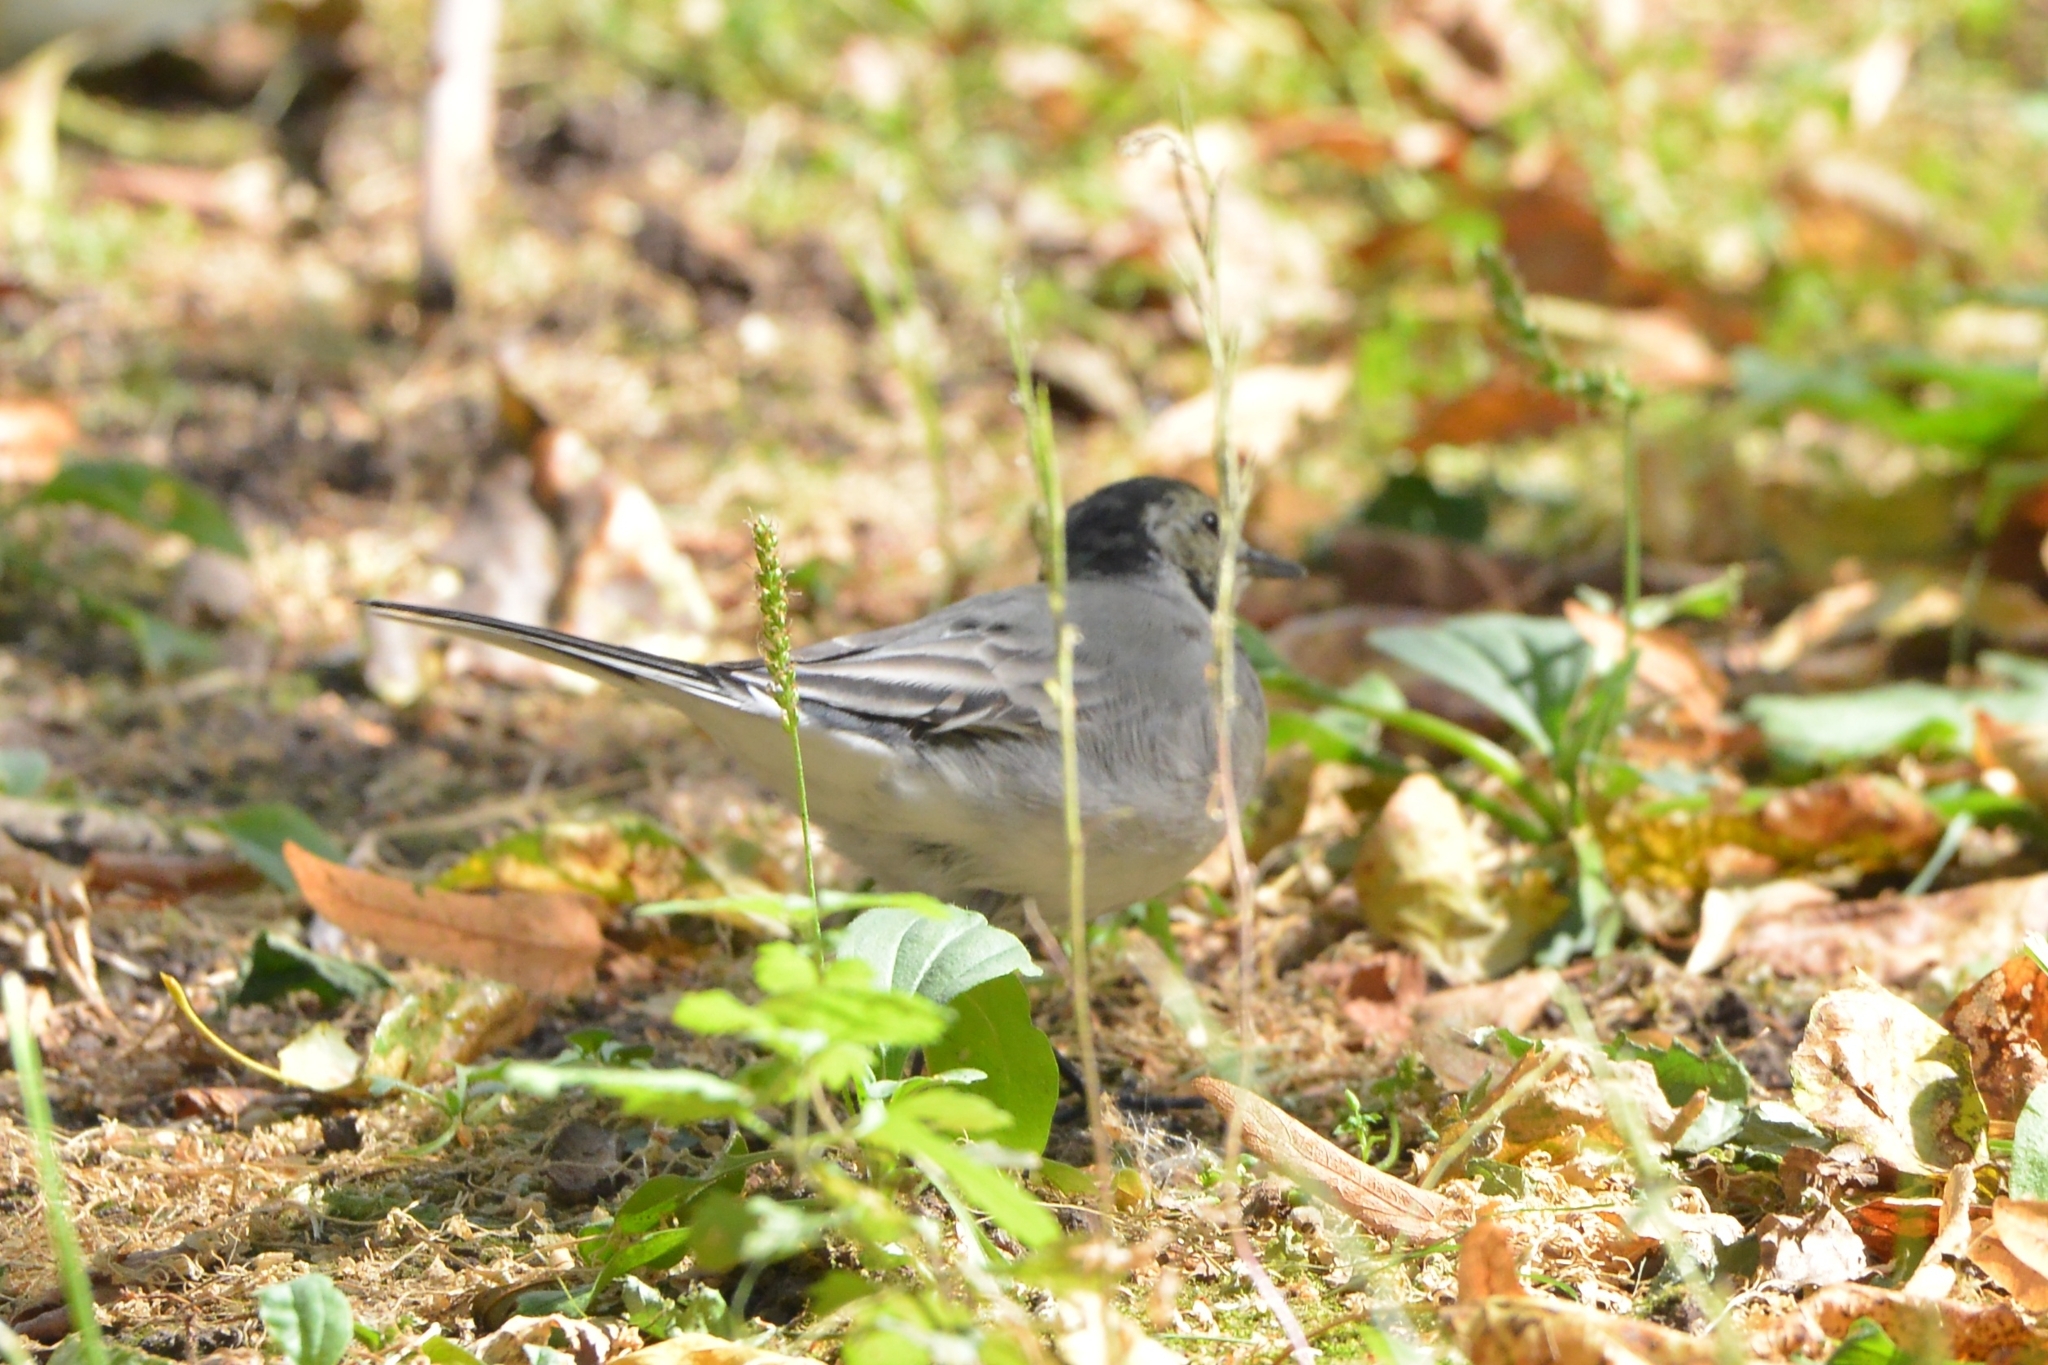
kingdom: Animalia
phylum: Chordata
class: Aves
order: Passeriformes
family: Motacillidae
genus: Motacilla
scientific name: Motacilla alba
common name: White wagtail
